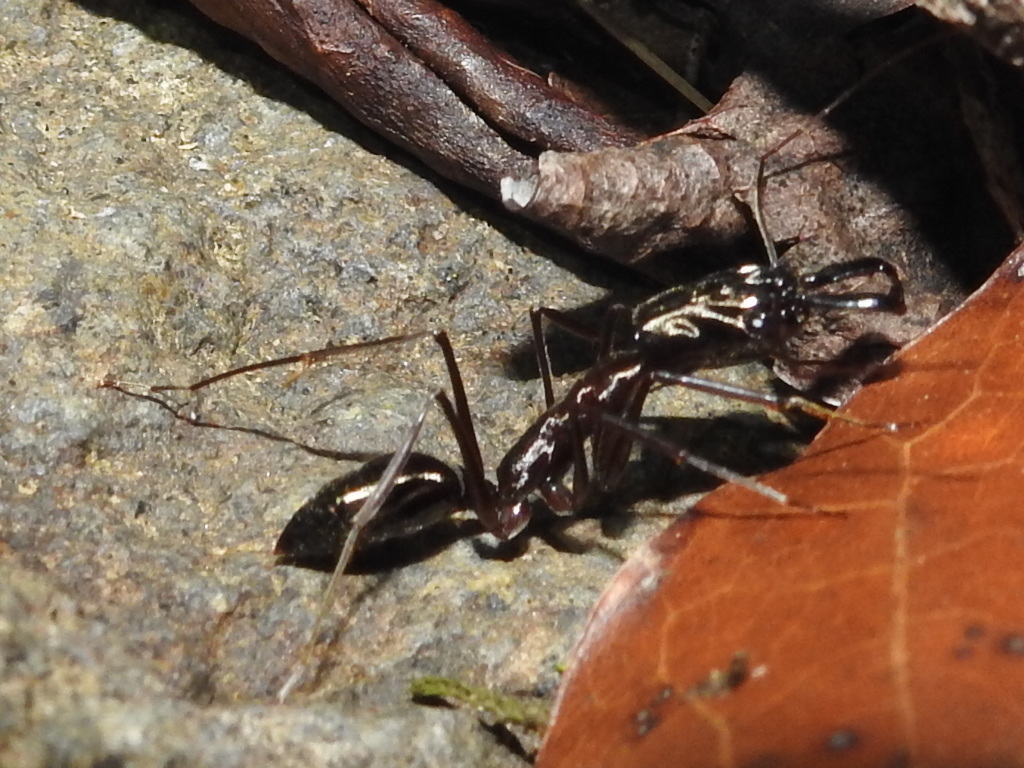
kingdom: Animalia
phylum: Arthropoda
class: Insecta
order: Hymenoptera
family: Formicidae
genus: Odontomachus
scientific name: Odontomachus chelifer
